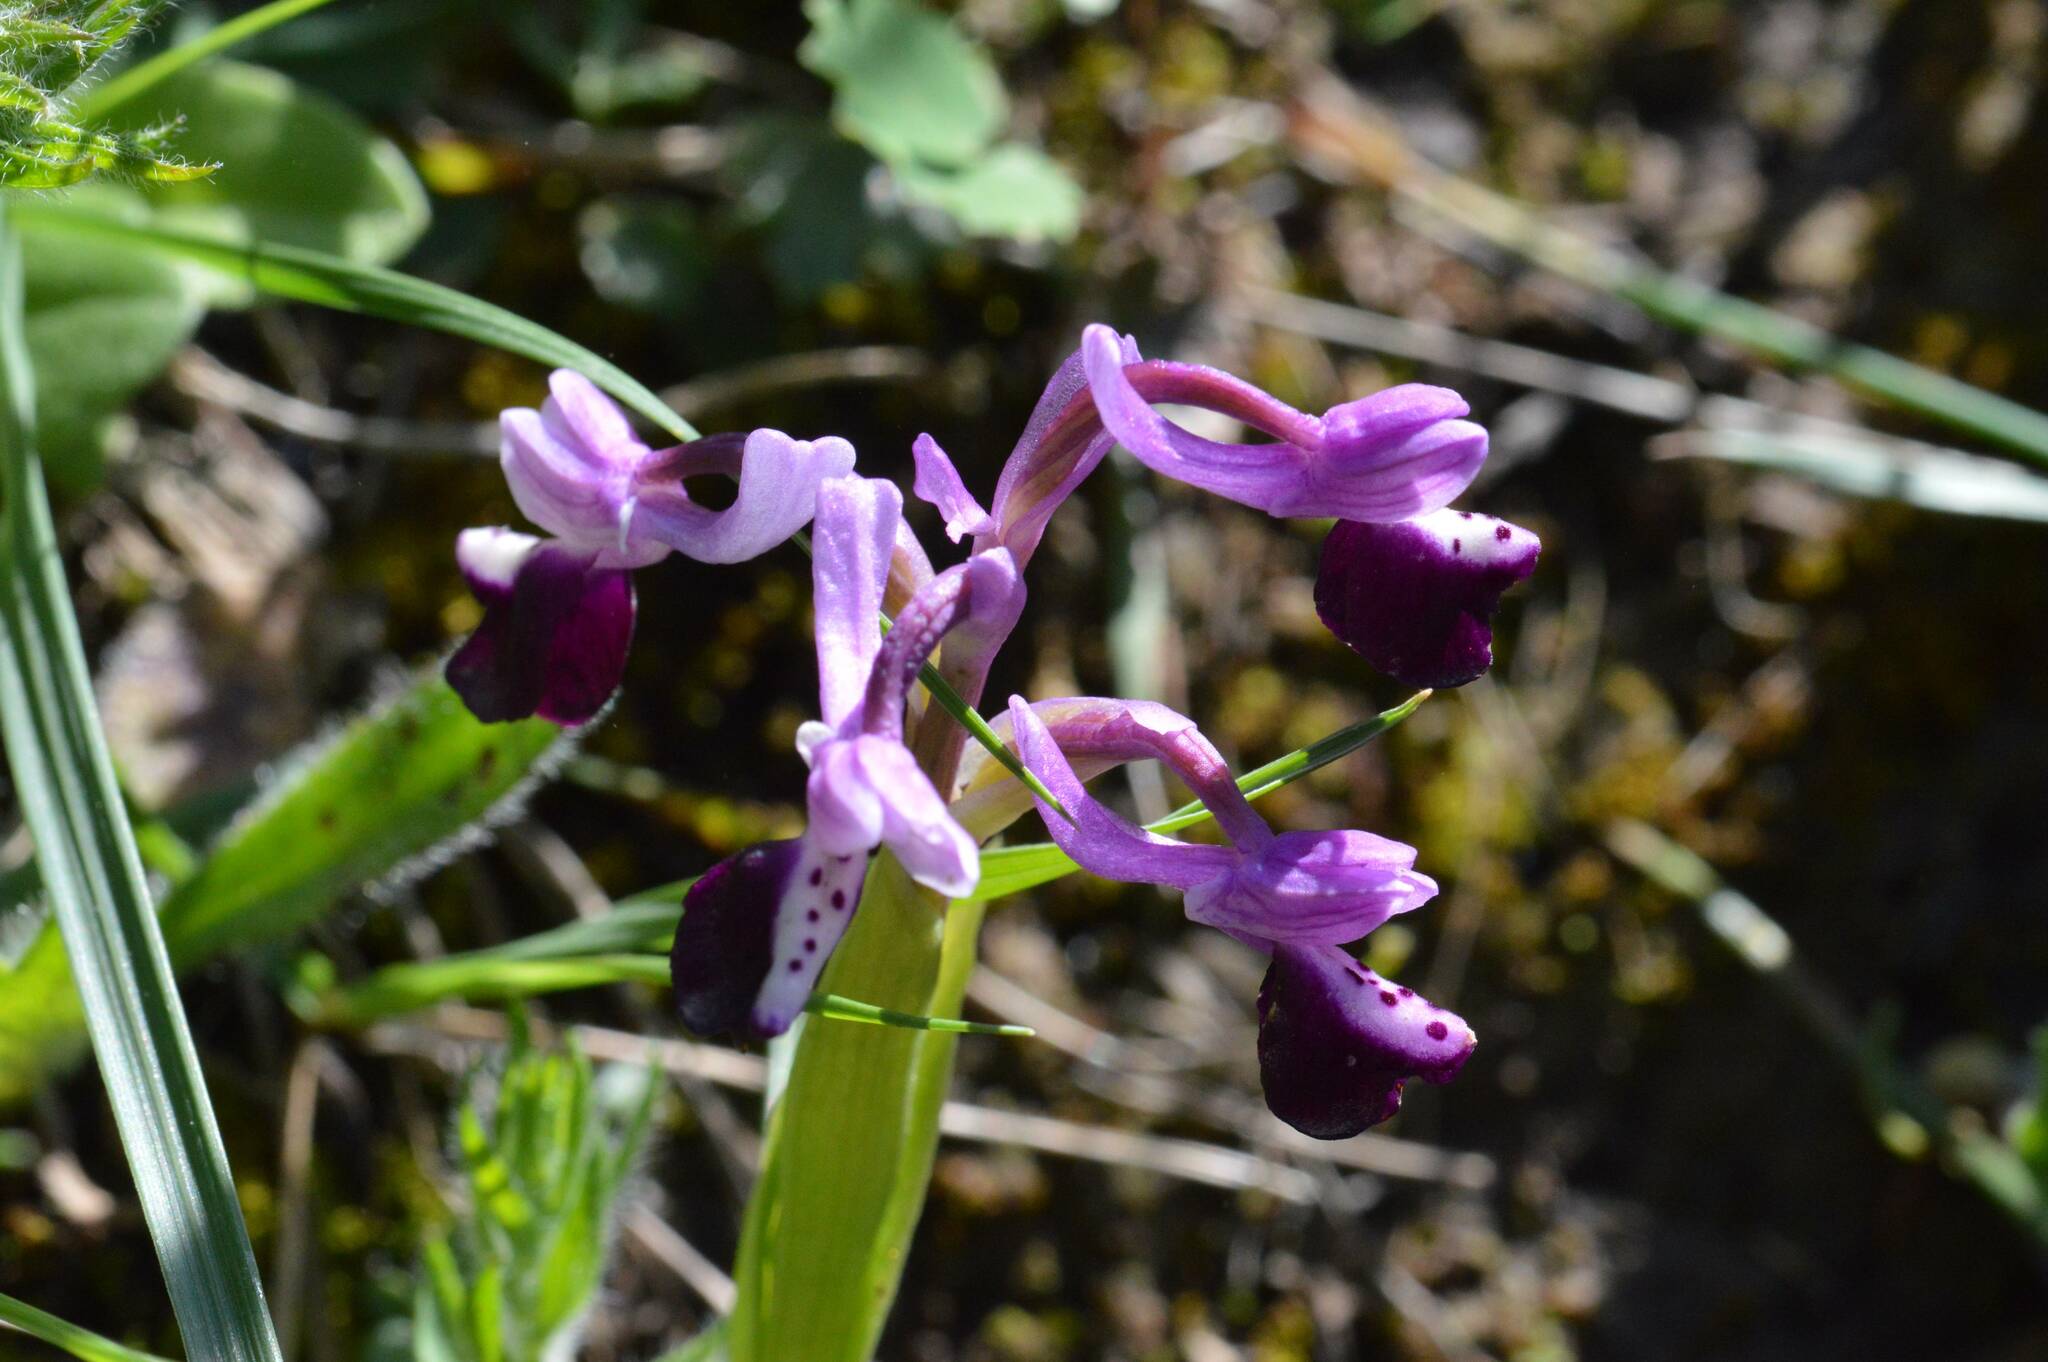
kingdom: Plantae
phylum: Tracheophyta
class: Liliopsida
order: Asparagales
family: Orchidaceae
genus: Anacamptis
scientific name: Anacamptis morio
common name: Green-winged orchid
